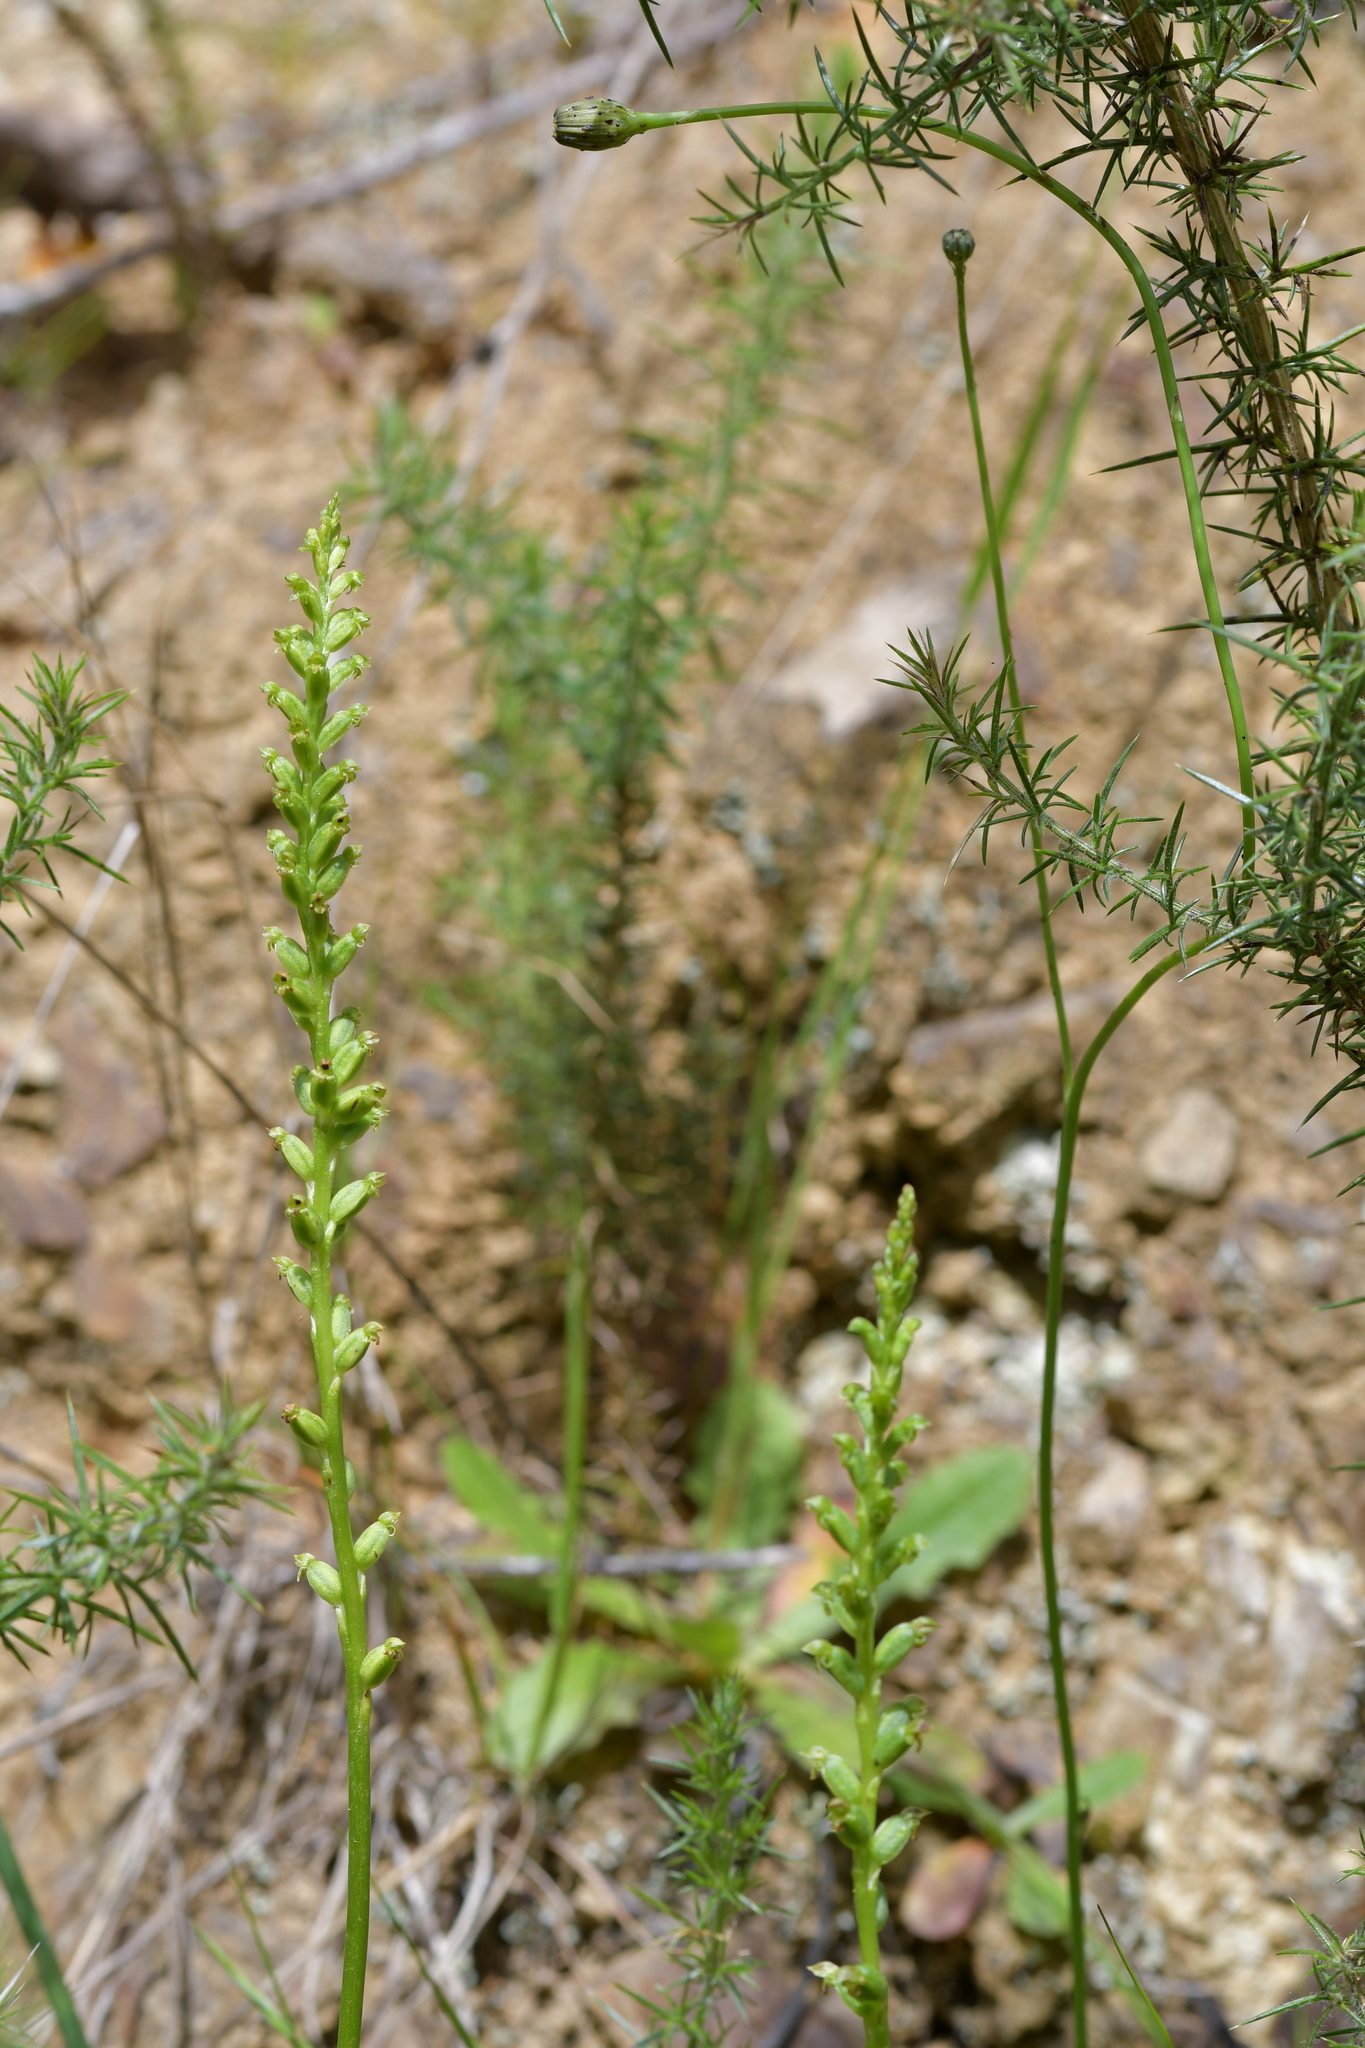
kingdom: Plantae
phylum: Tracheophyta
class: Liliopsida
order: Asparagales
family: Orchidaceae
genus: Microtis
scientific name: Microtis unifolia
